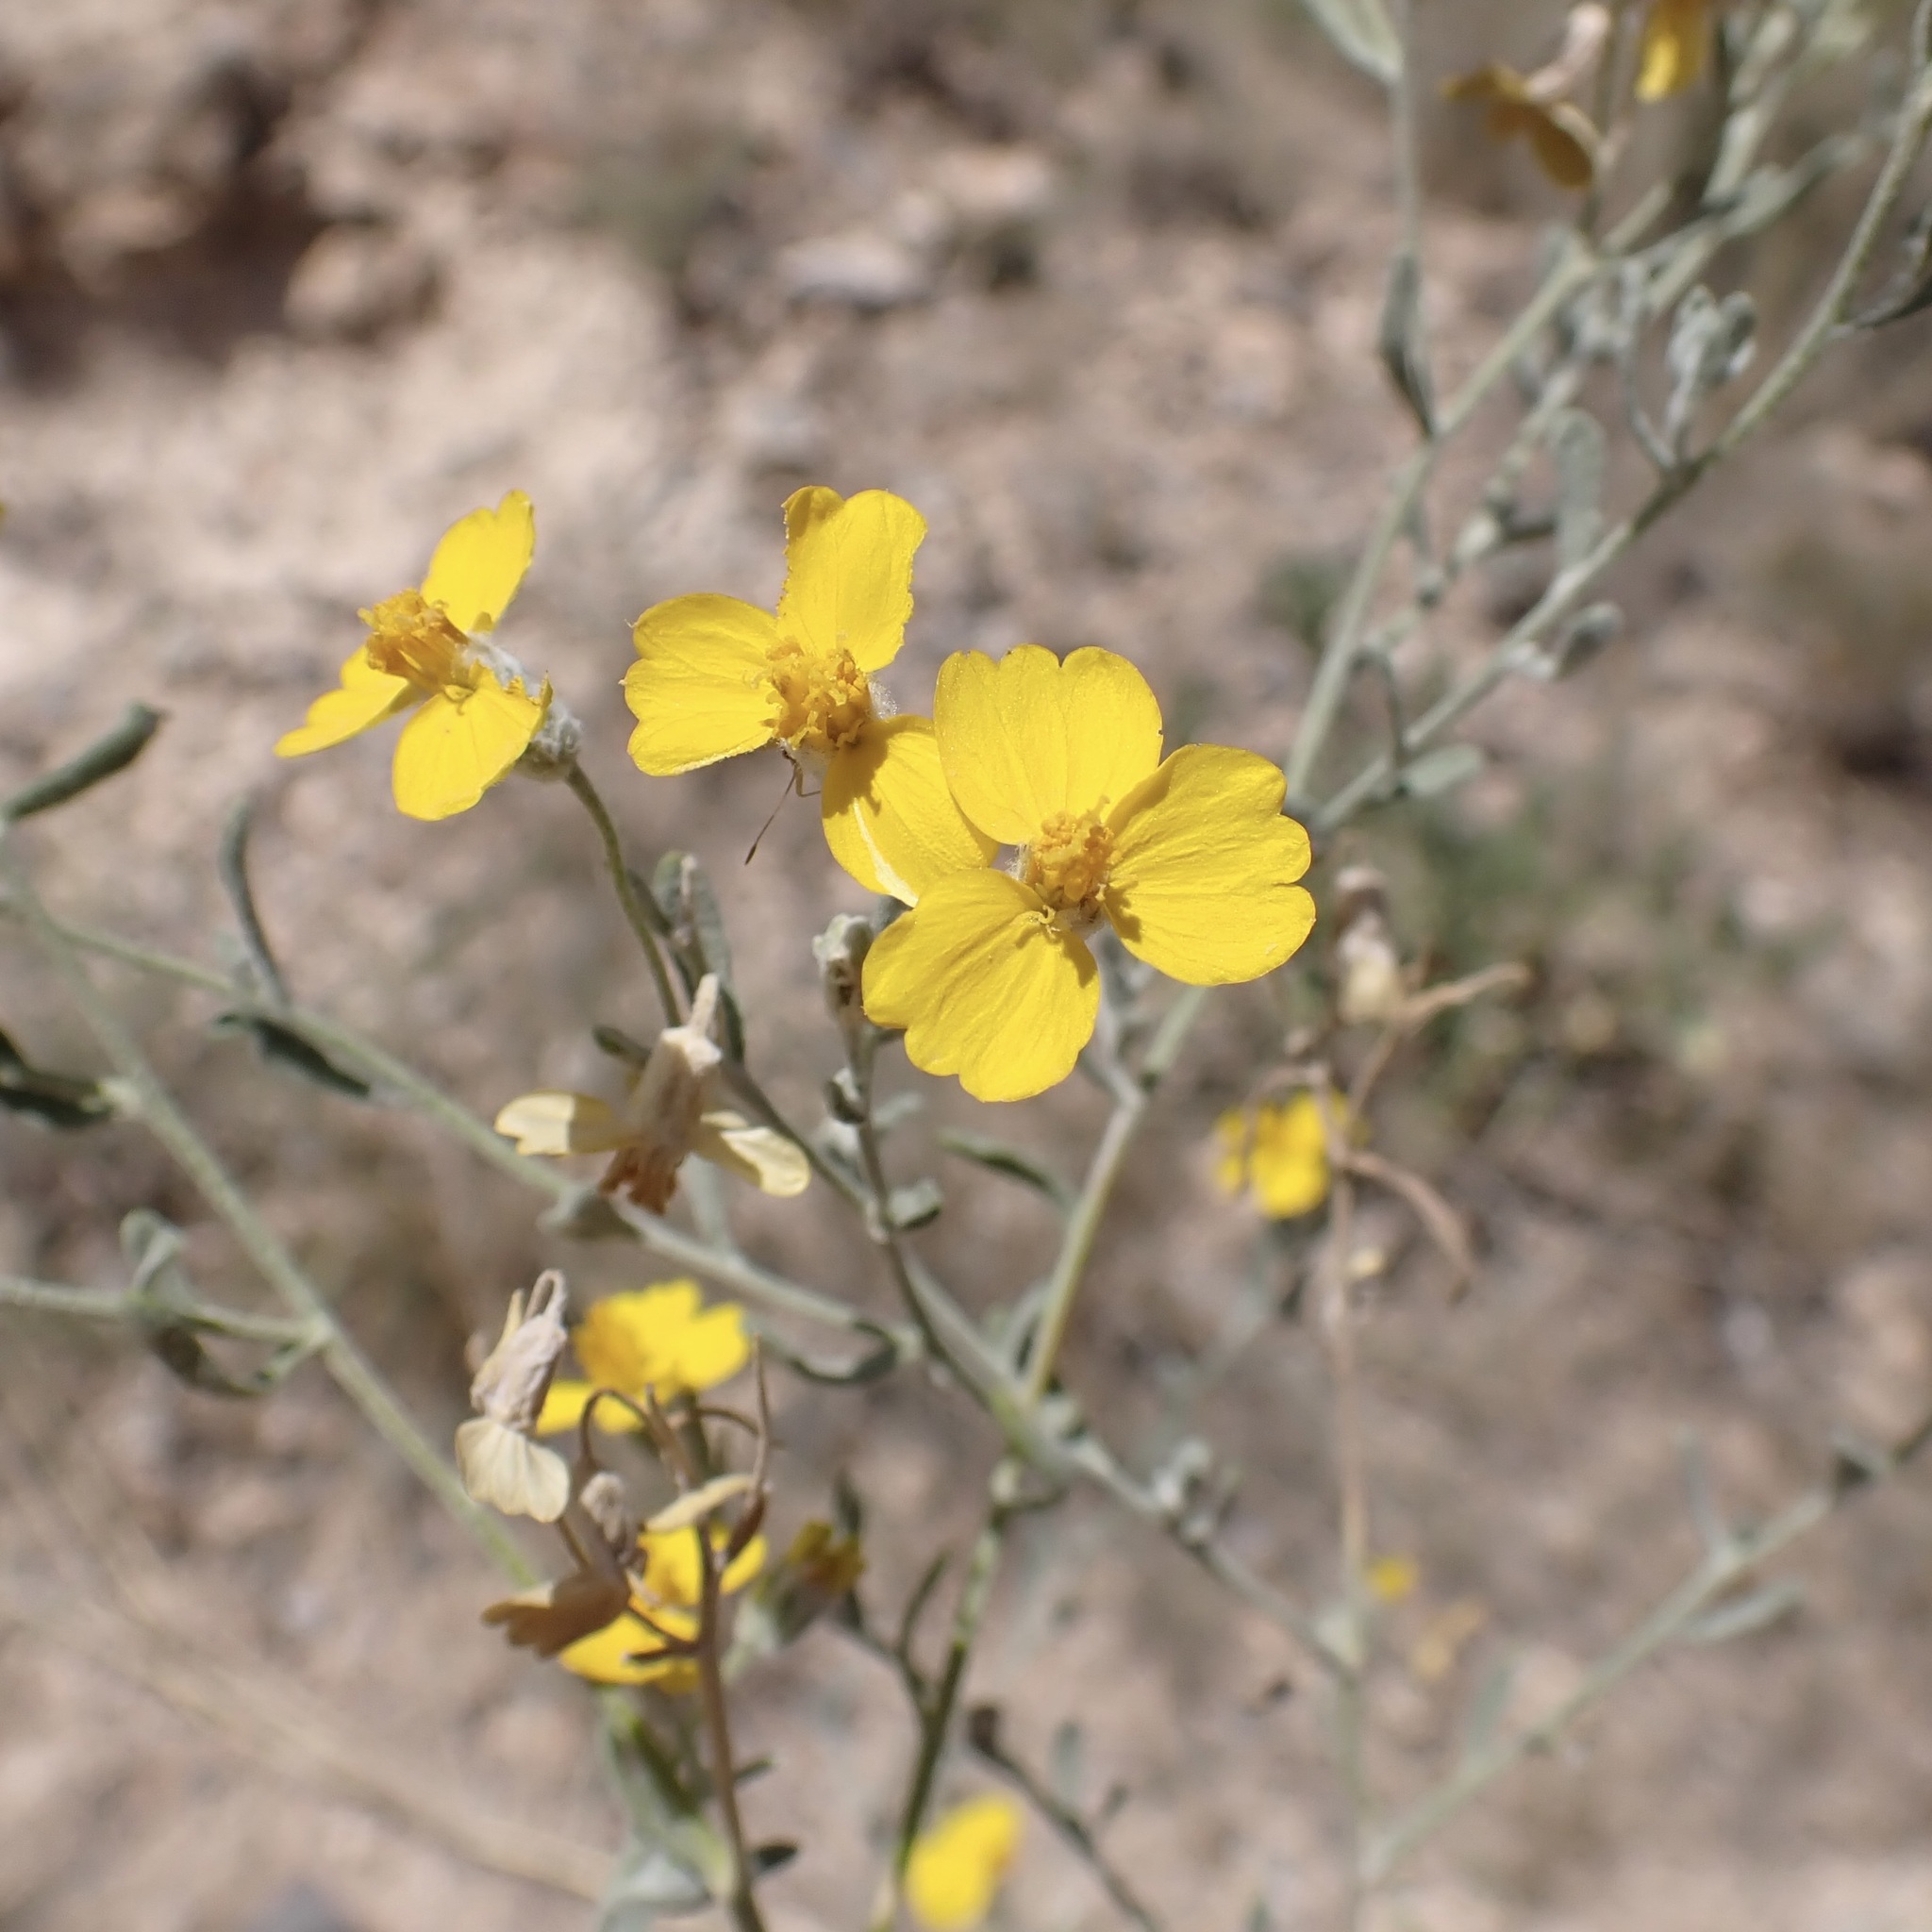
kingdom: Plantae
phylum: Tracheophyta
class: Magnoliopsida
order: Asterales
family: Asteraceae
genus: Psilostrophe
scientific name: Psilostrophe tagetina
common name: Marigold paper-flower
